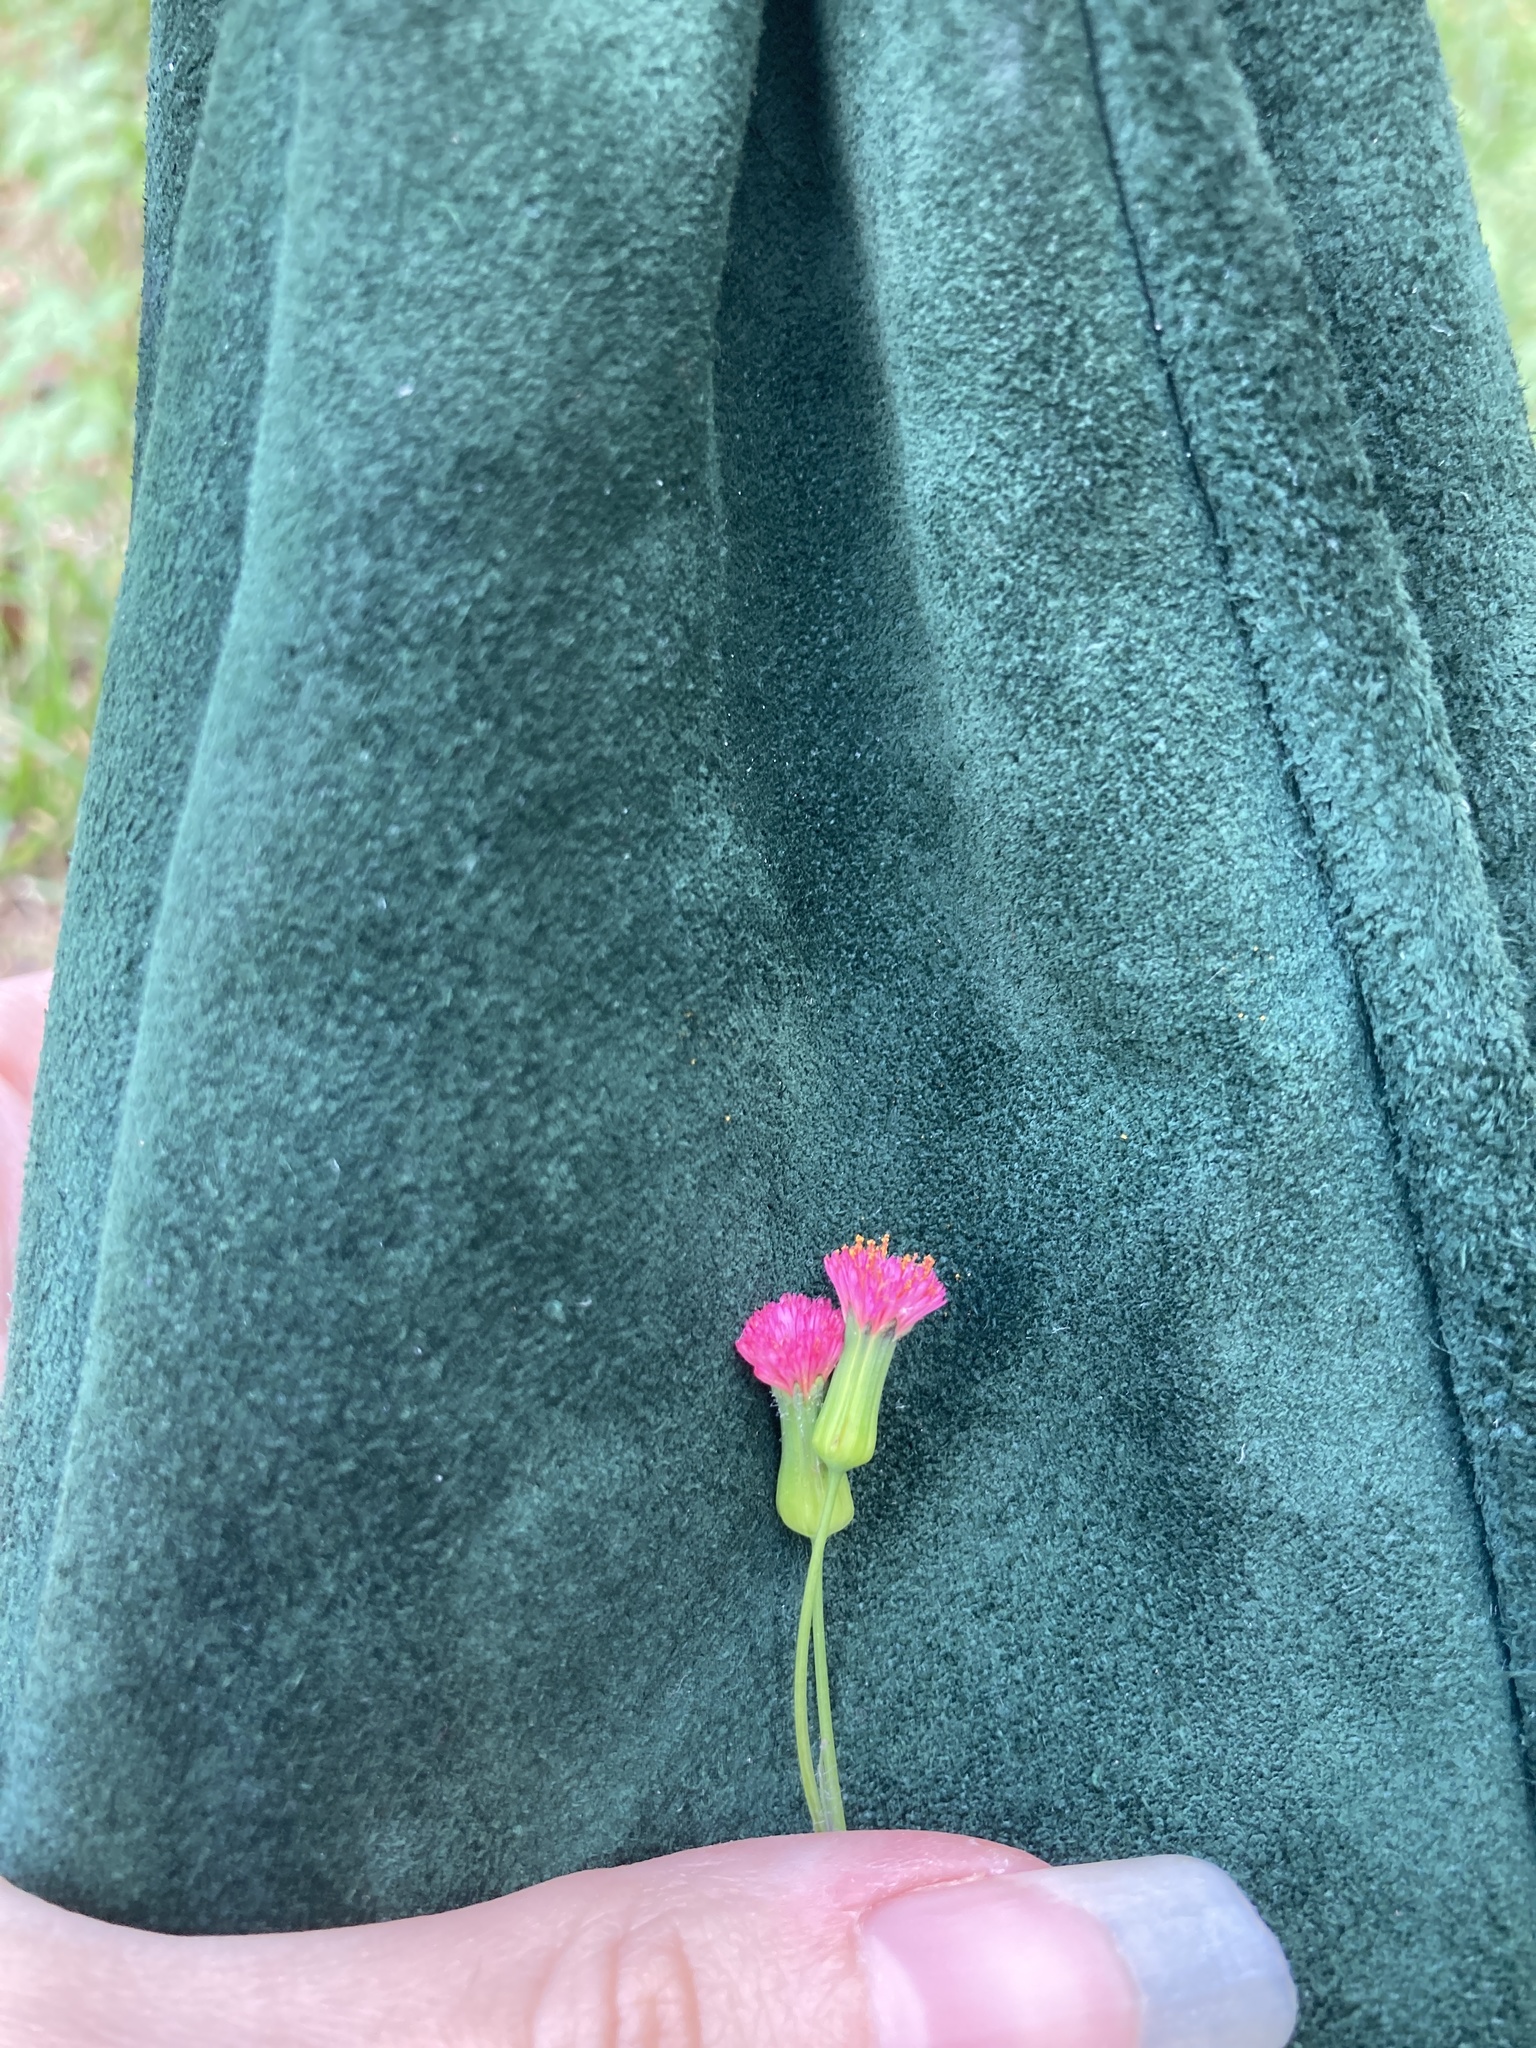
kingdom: Plantae
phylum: Tracheophyta
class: Magnoliopsida
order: Asterales
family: Asteraceae
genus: Emilia
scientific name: Emilia sonchifolia
